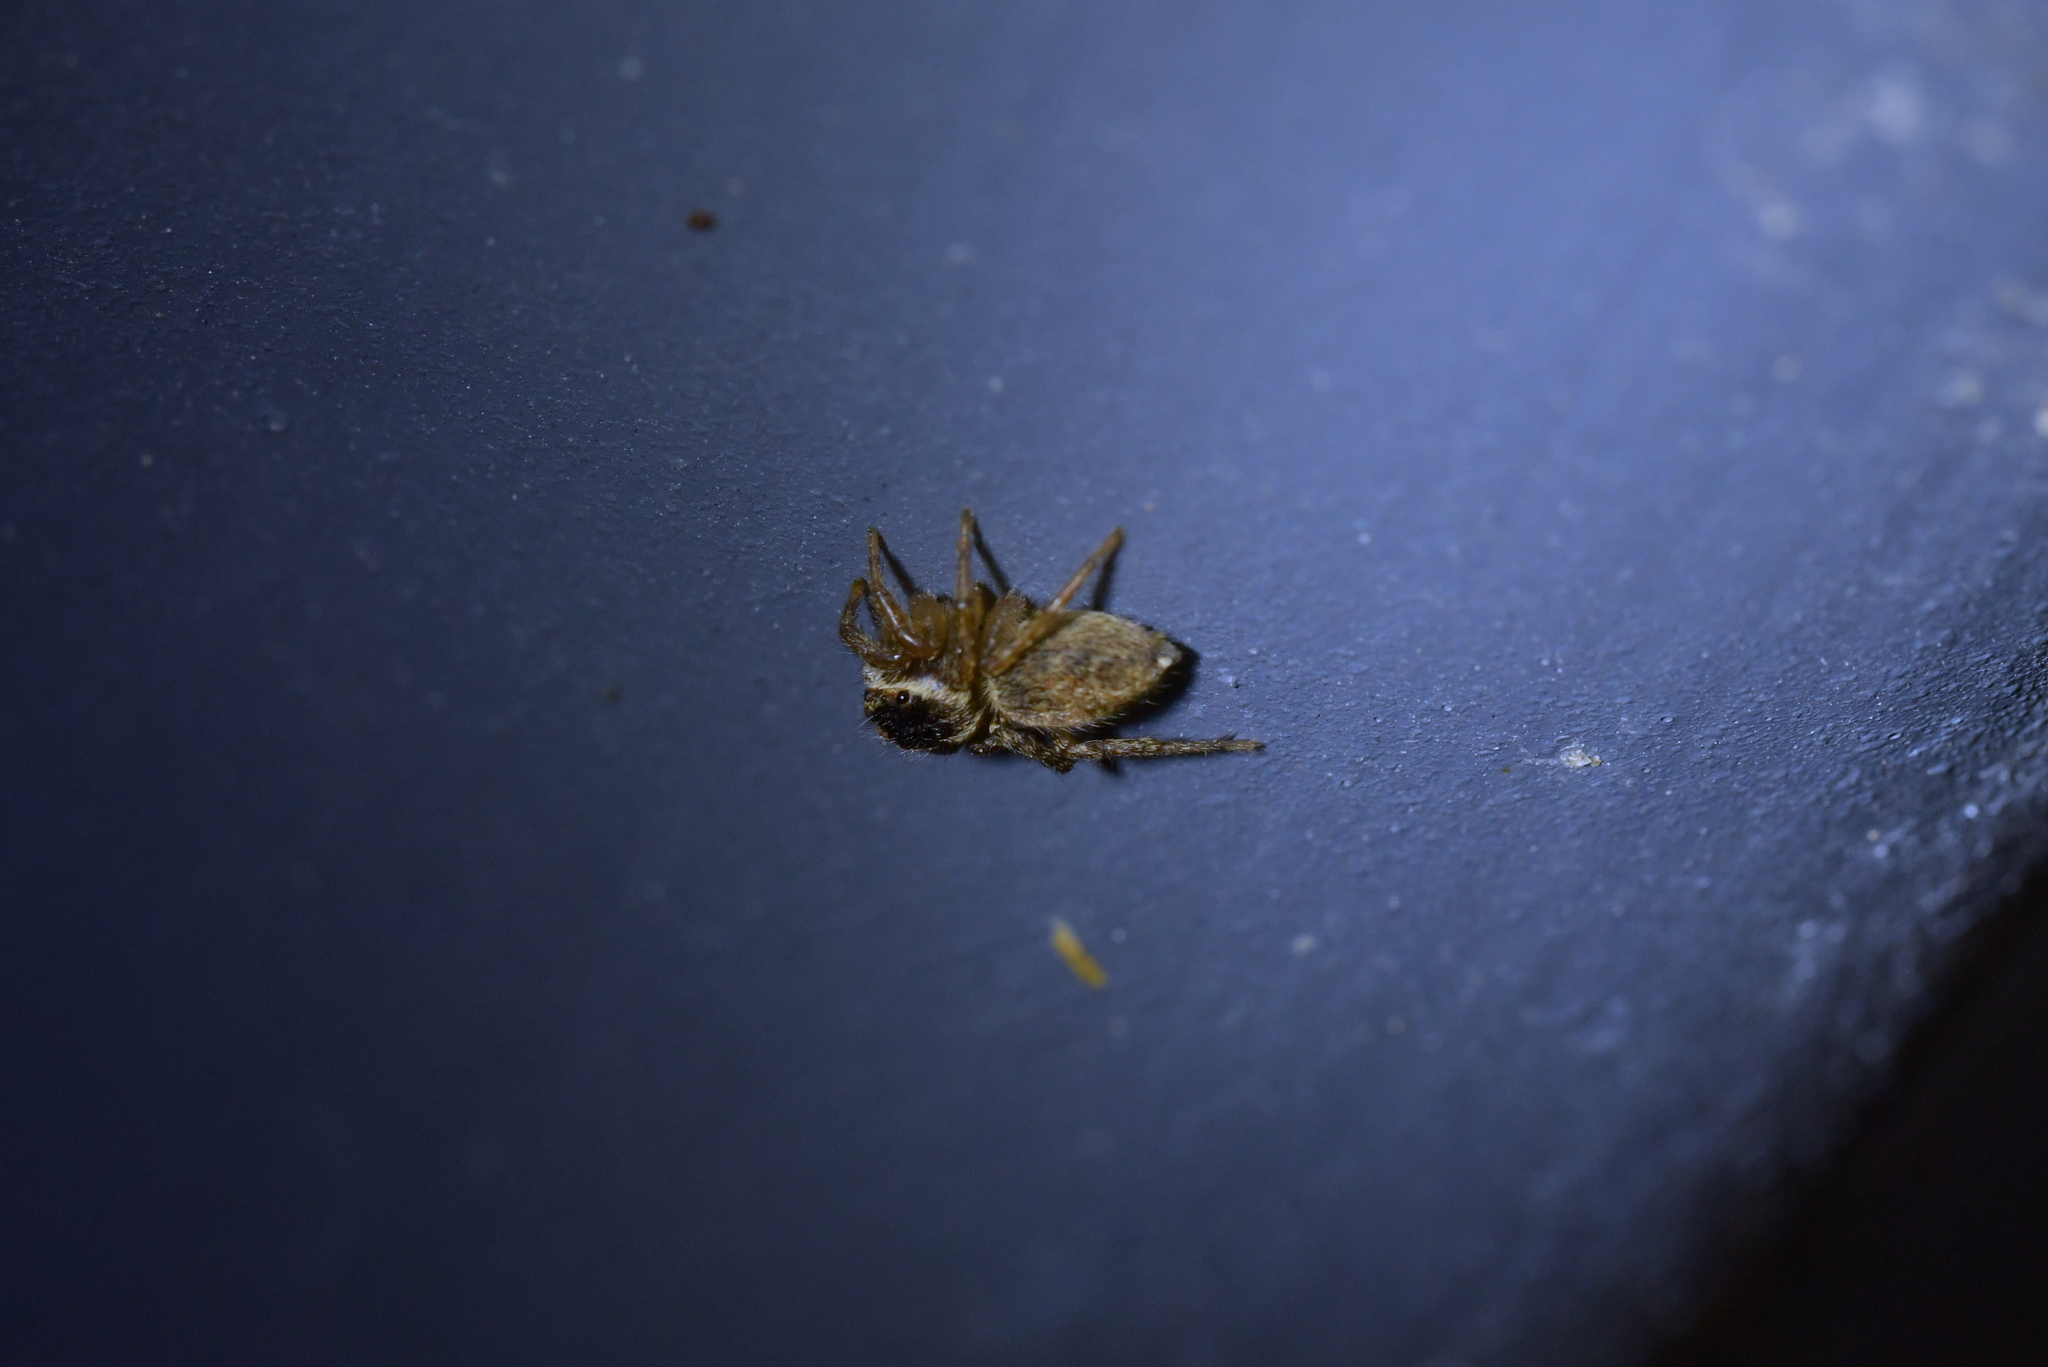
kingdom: Animalia
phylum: Arthropoda
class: Arachnida
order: Araneae
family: Salticidae
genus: Maratus
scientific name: Maratus griseus
